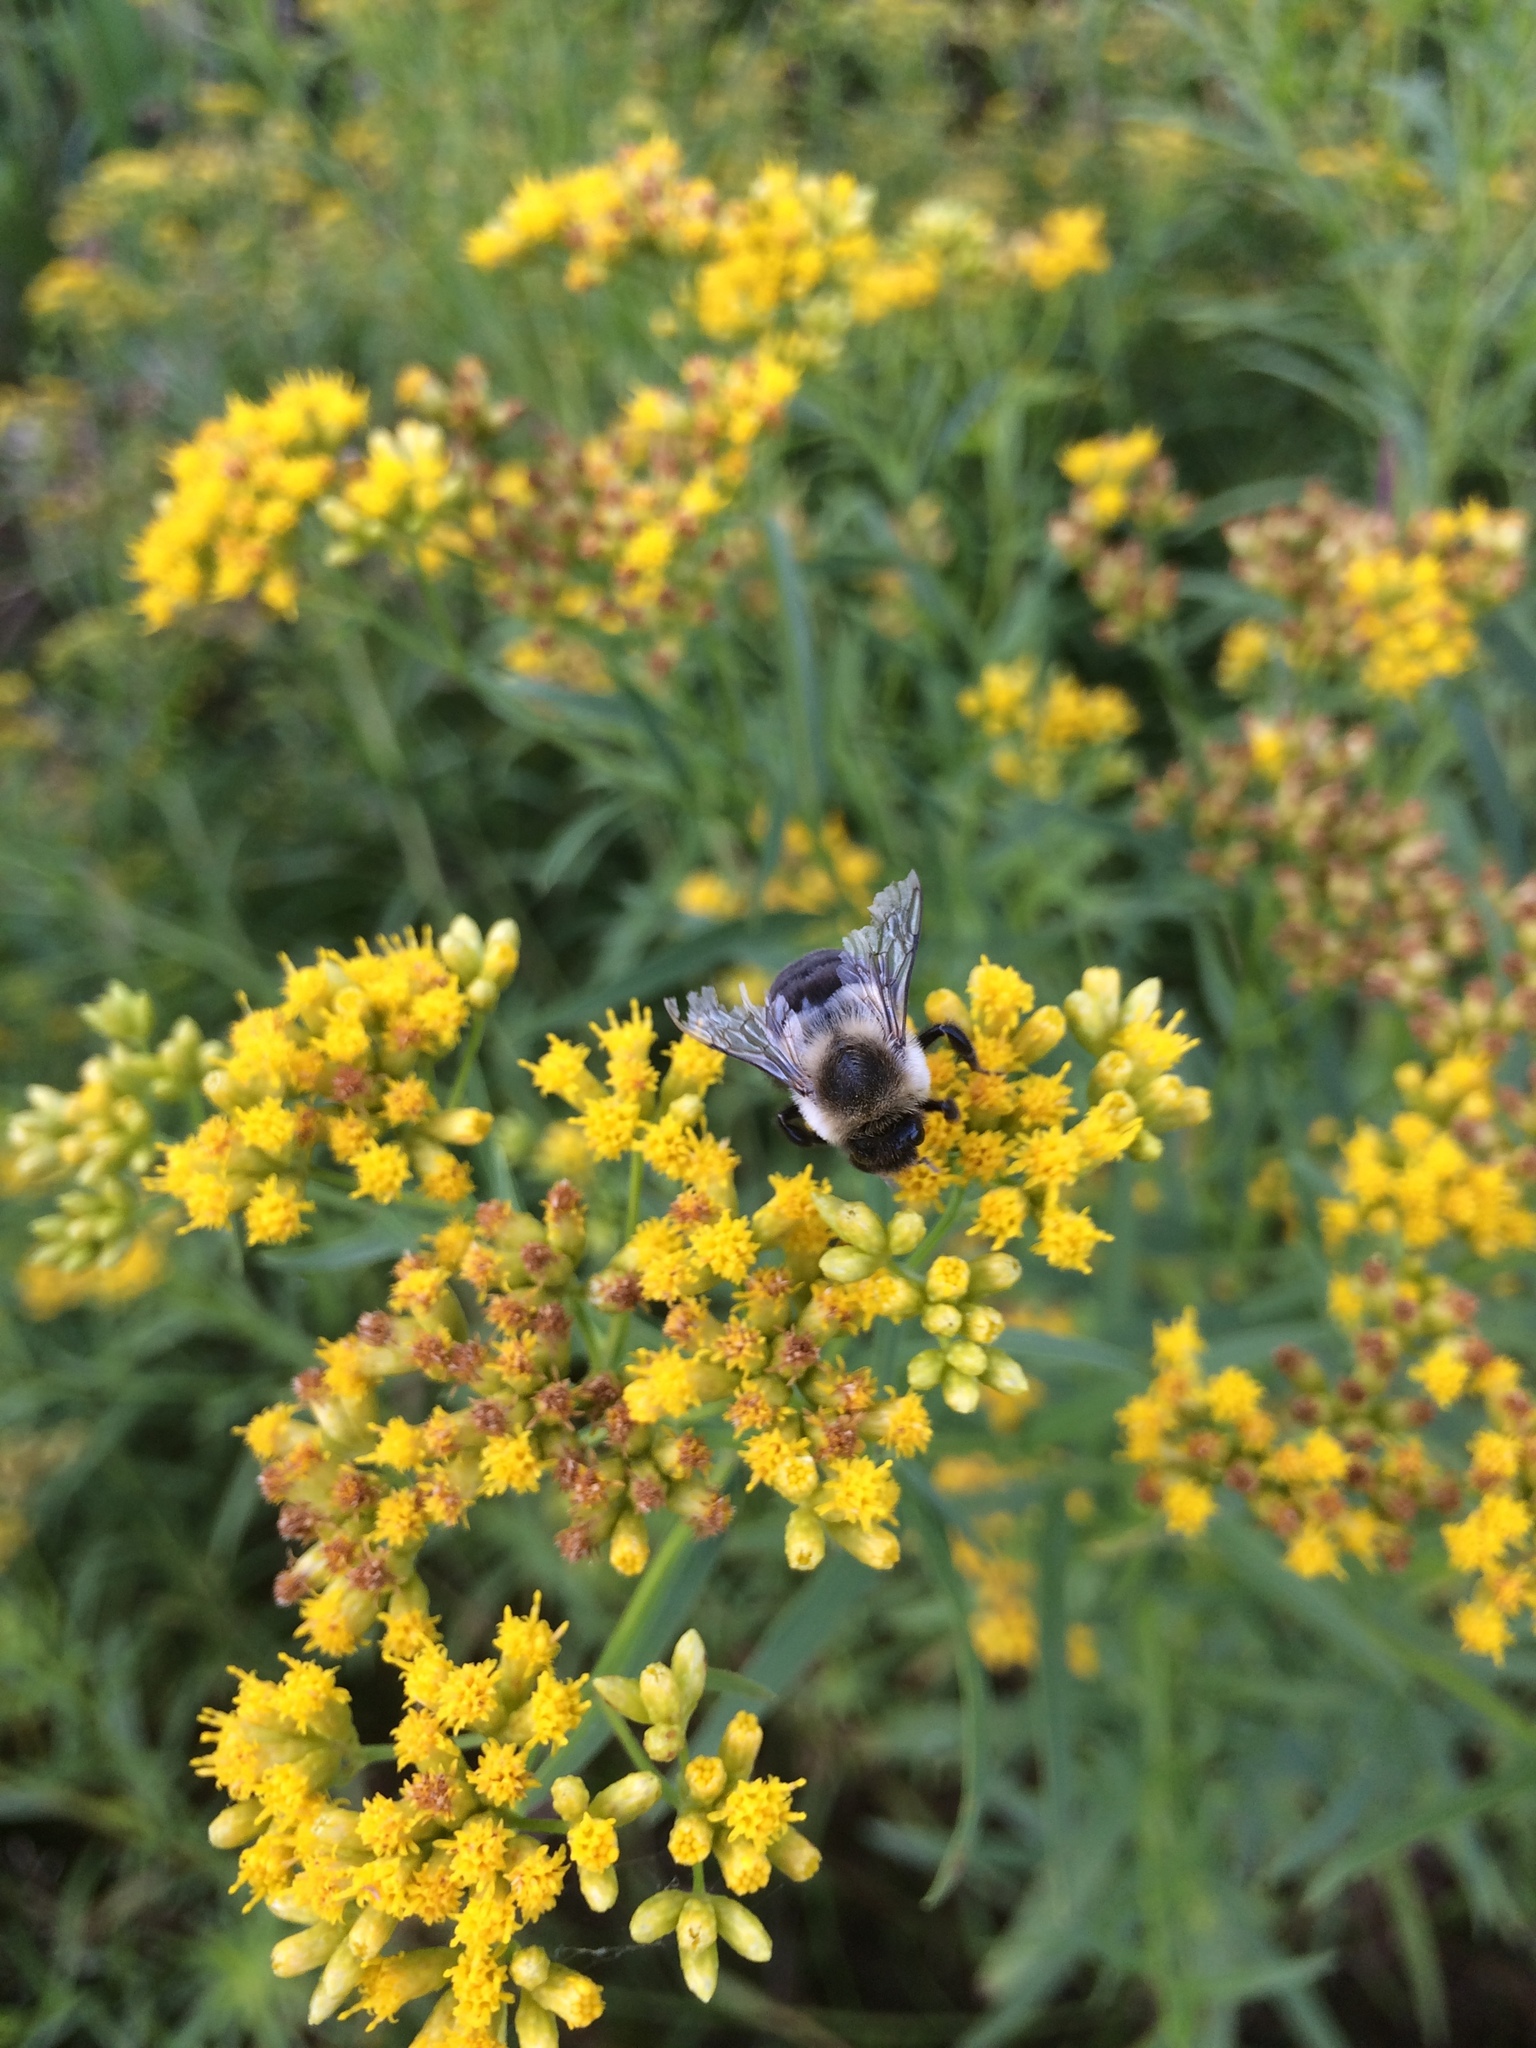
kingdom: Animalia
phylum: Arthropoda
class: Insecta
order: Hymenoptera
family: Apidae
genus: Bombus
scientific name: Bombus impatiens
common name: Common eastern bumble bee
